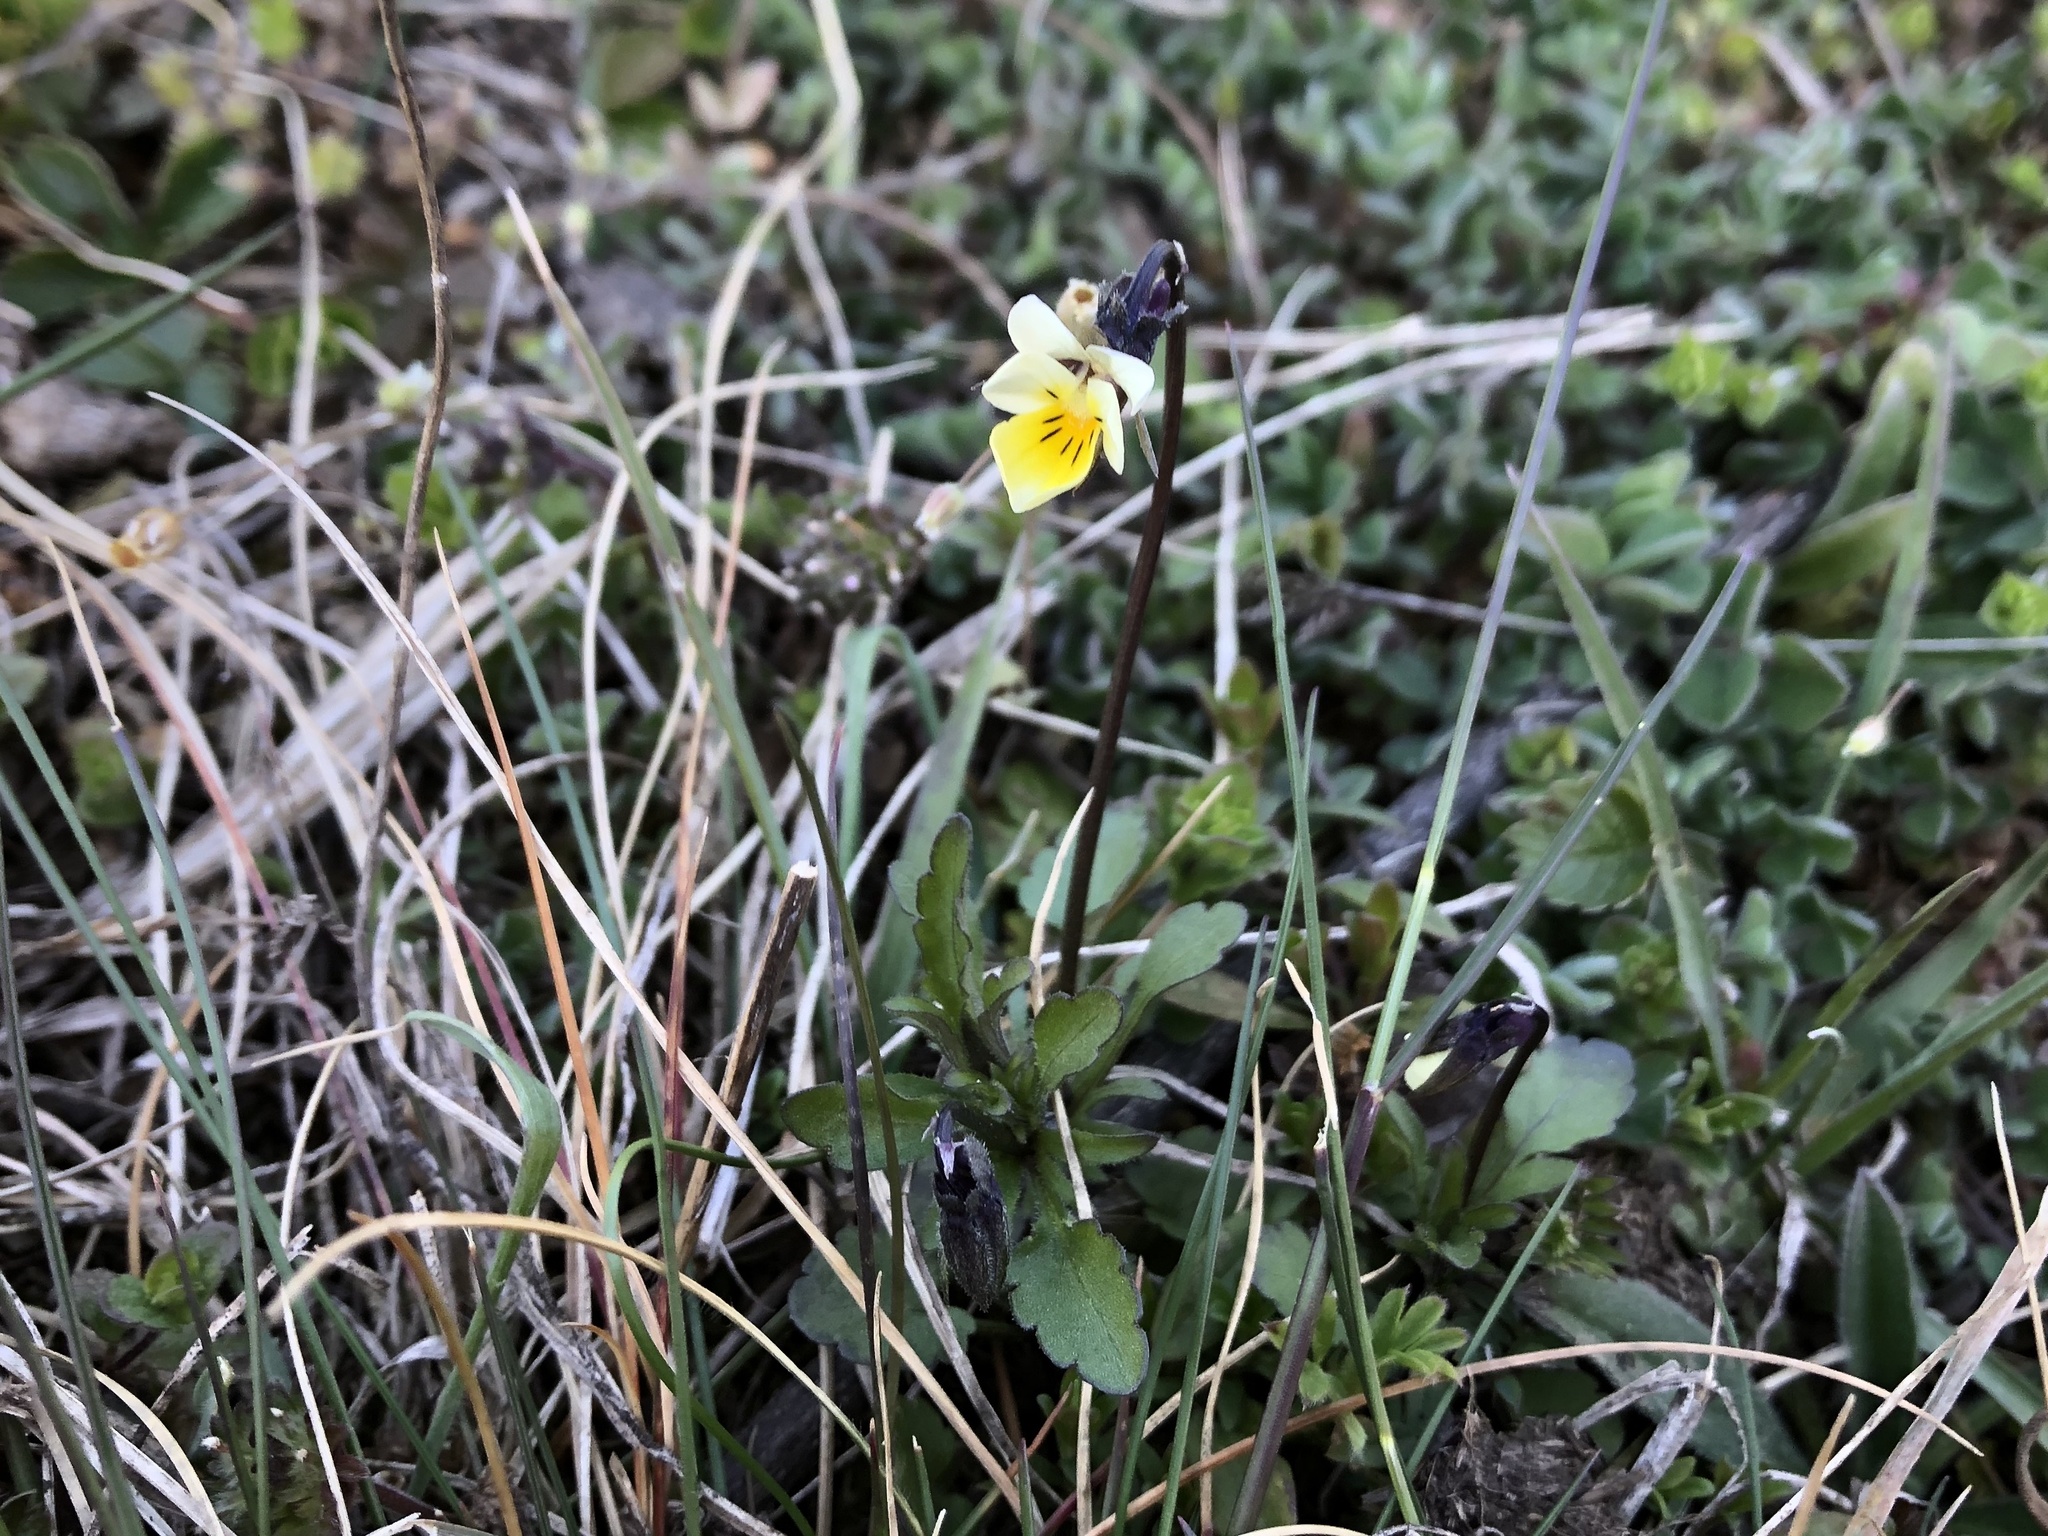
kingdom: Plantae
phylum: Tracheophyta
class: Magnoliopsida
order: Malpighiales
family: Violaceae
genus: Viola
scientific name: Viola arvensis
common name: Field pansy
